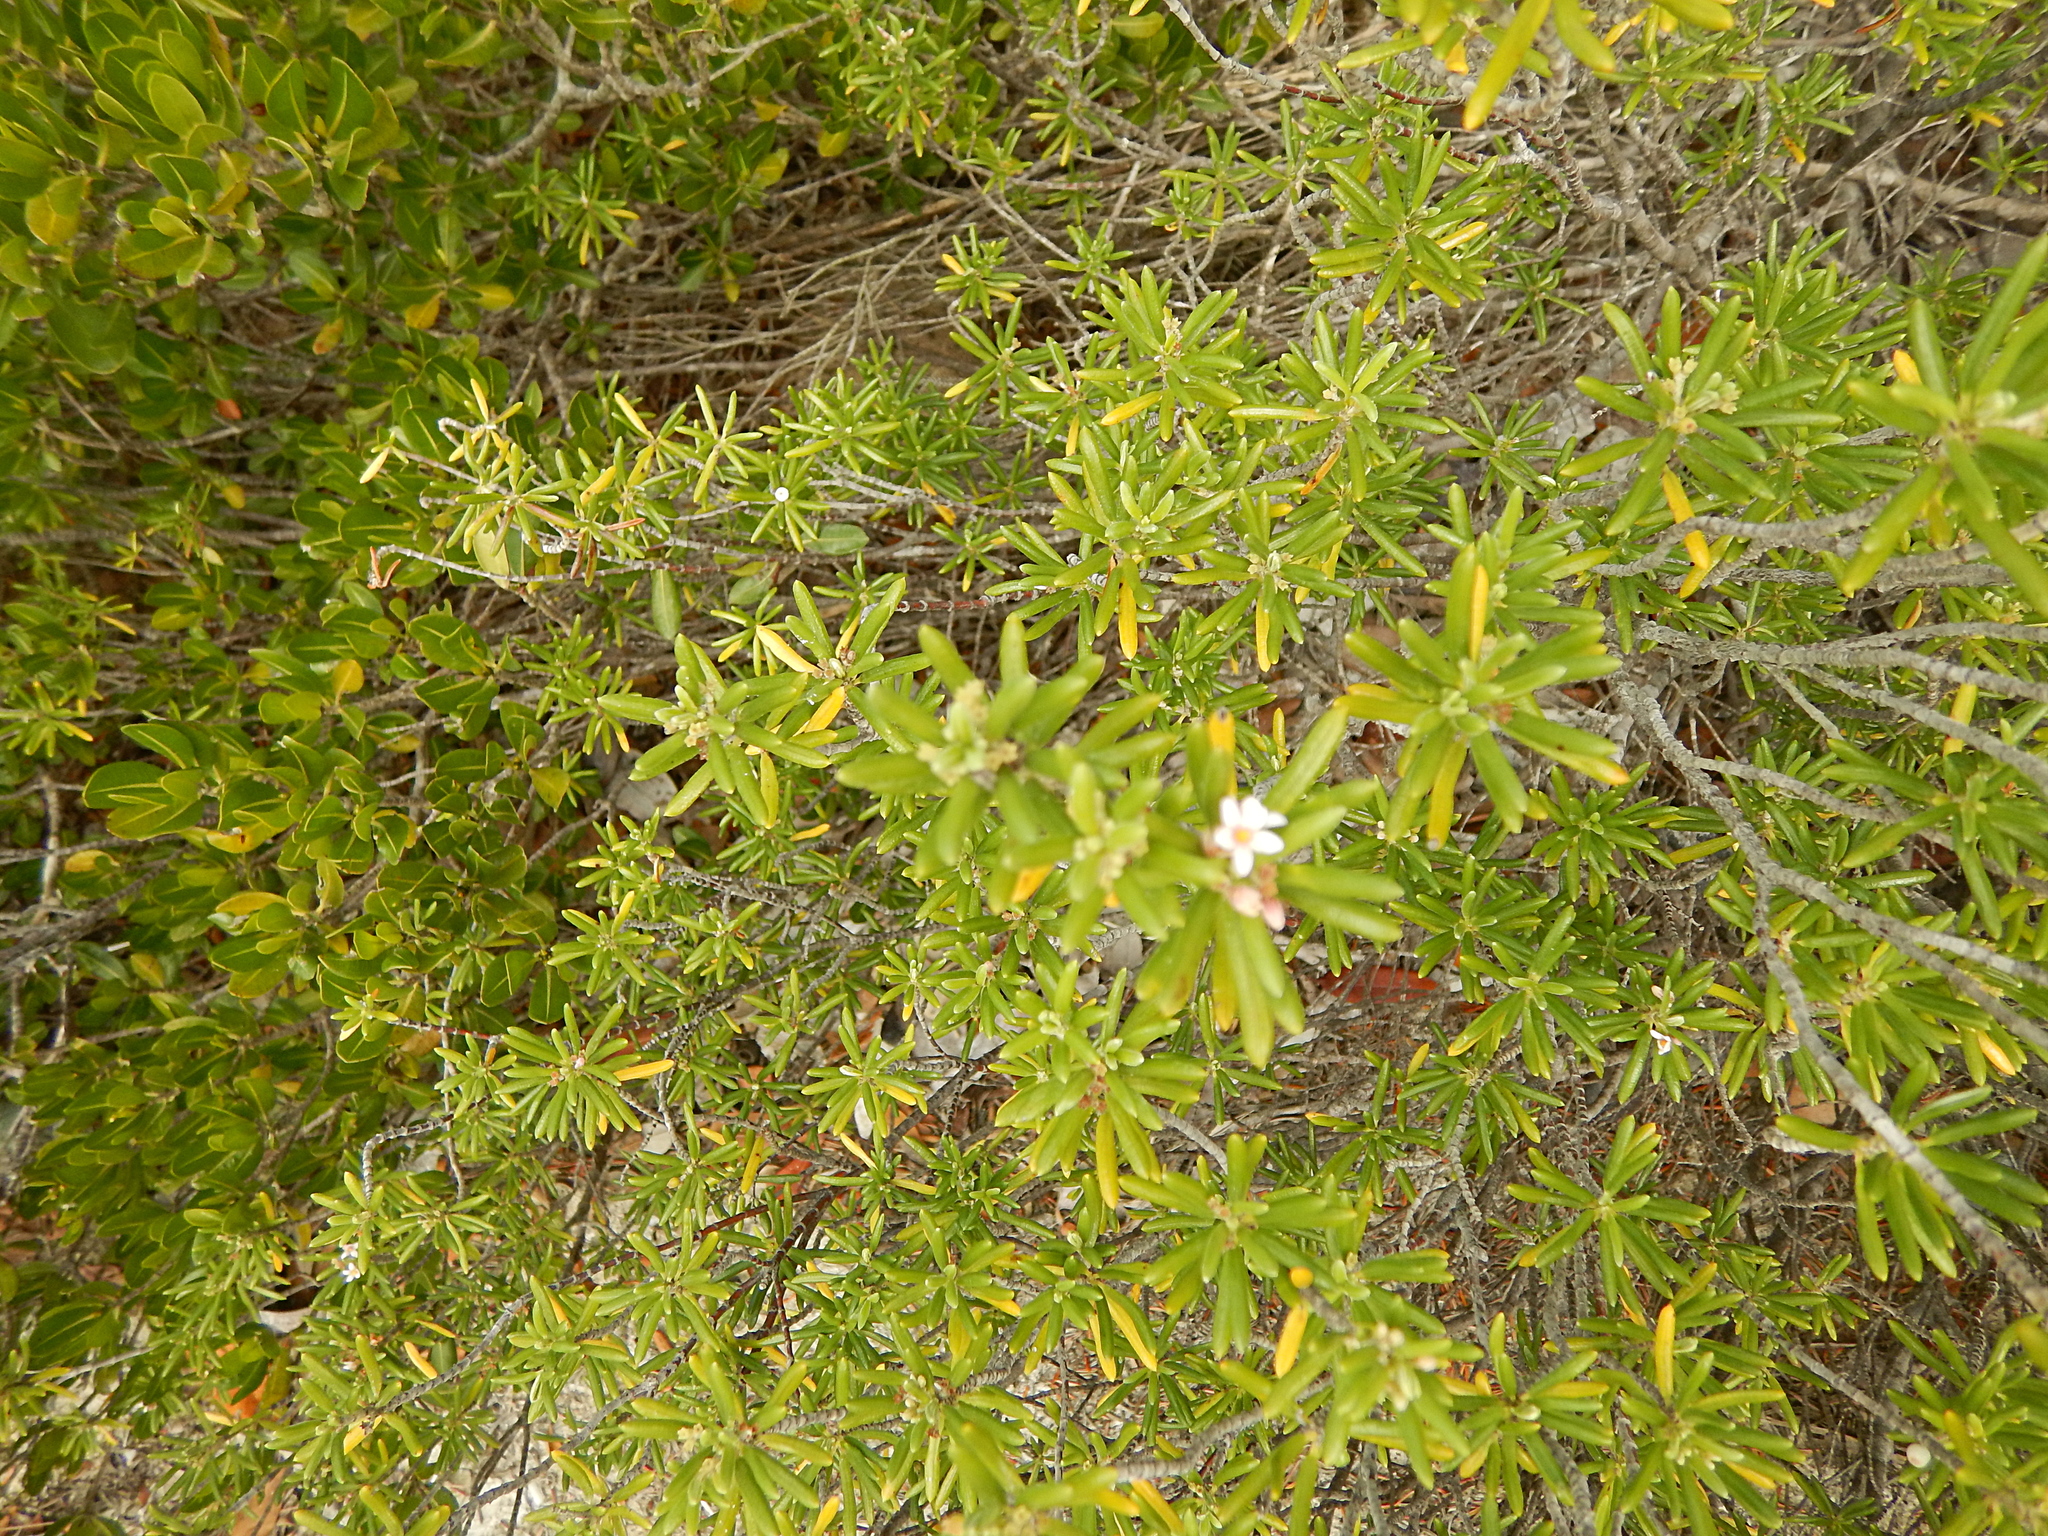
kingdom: Plantae
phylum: Tracheophyta
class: Magnoliopsida
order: Gentianales
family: Rubiaceae
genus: Strumpfia
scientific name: Strumpfia maritima
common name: Pride-of-big pine
